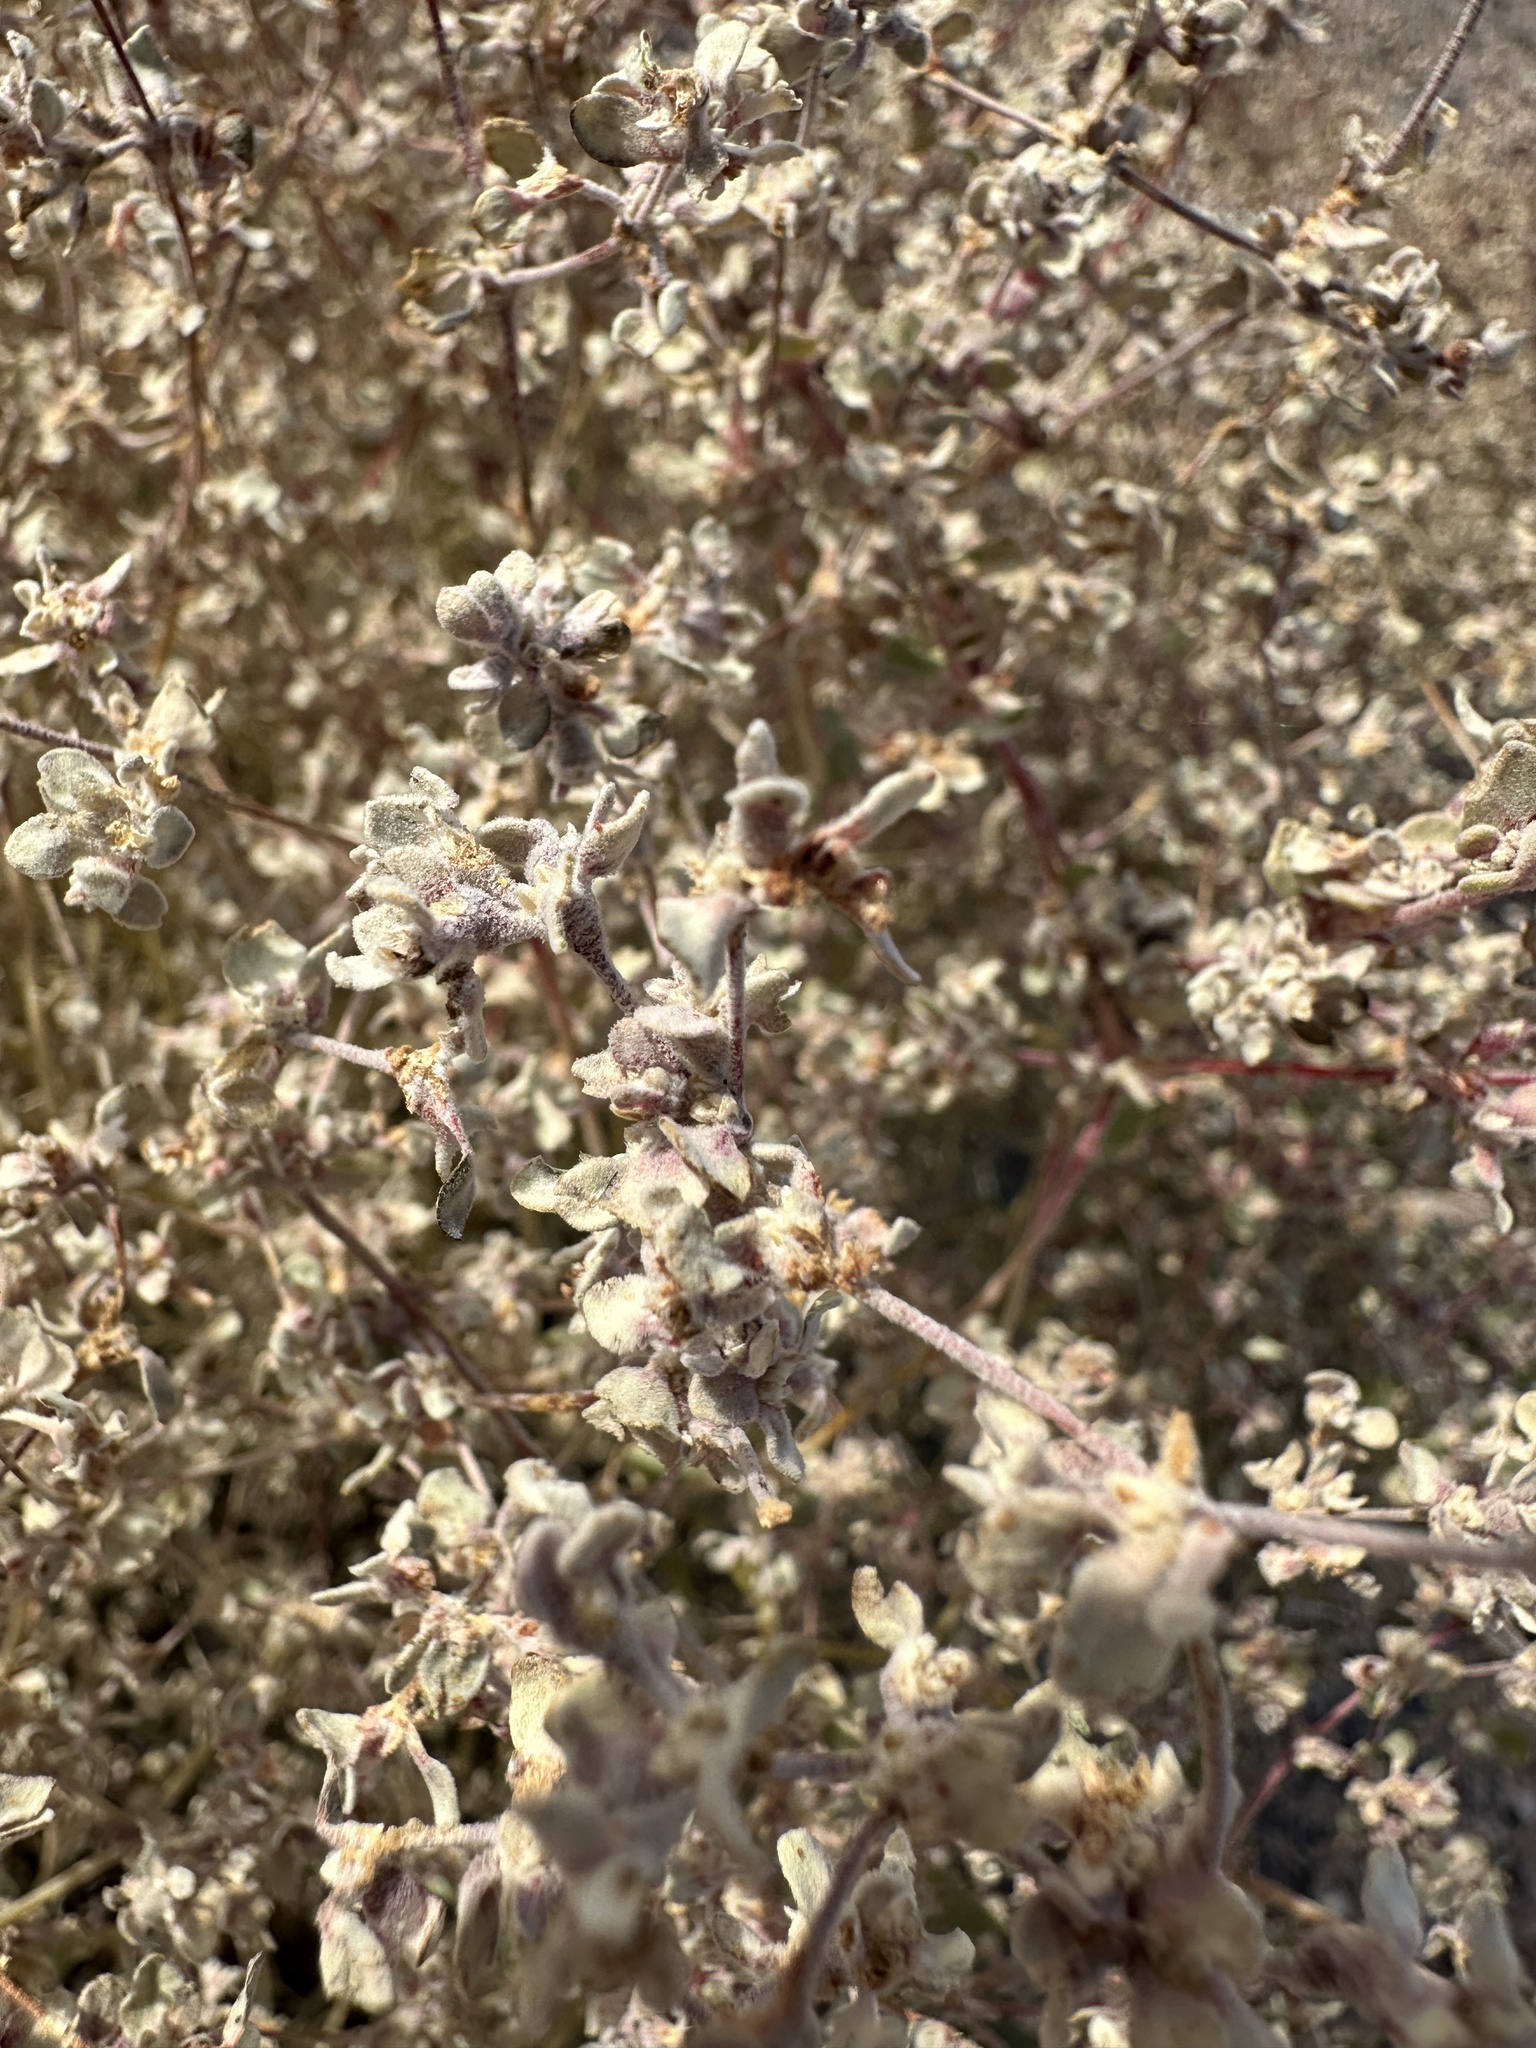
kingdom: Plantae
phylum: Tracheophyta
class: Magnoliopsida
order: Caryophyllales
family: Amaranthaceae
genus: Tidestromia
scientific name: Tidestromia suffruticosa
